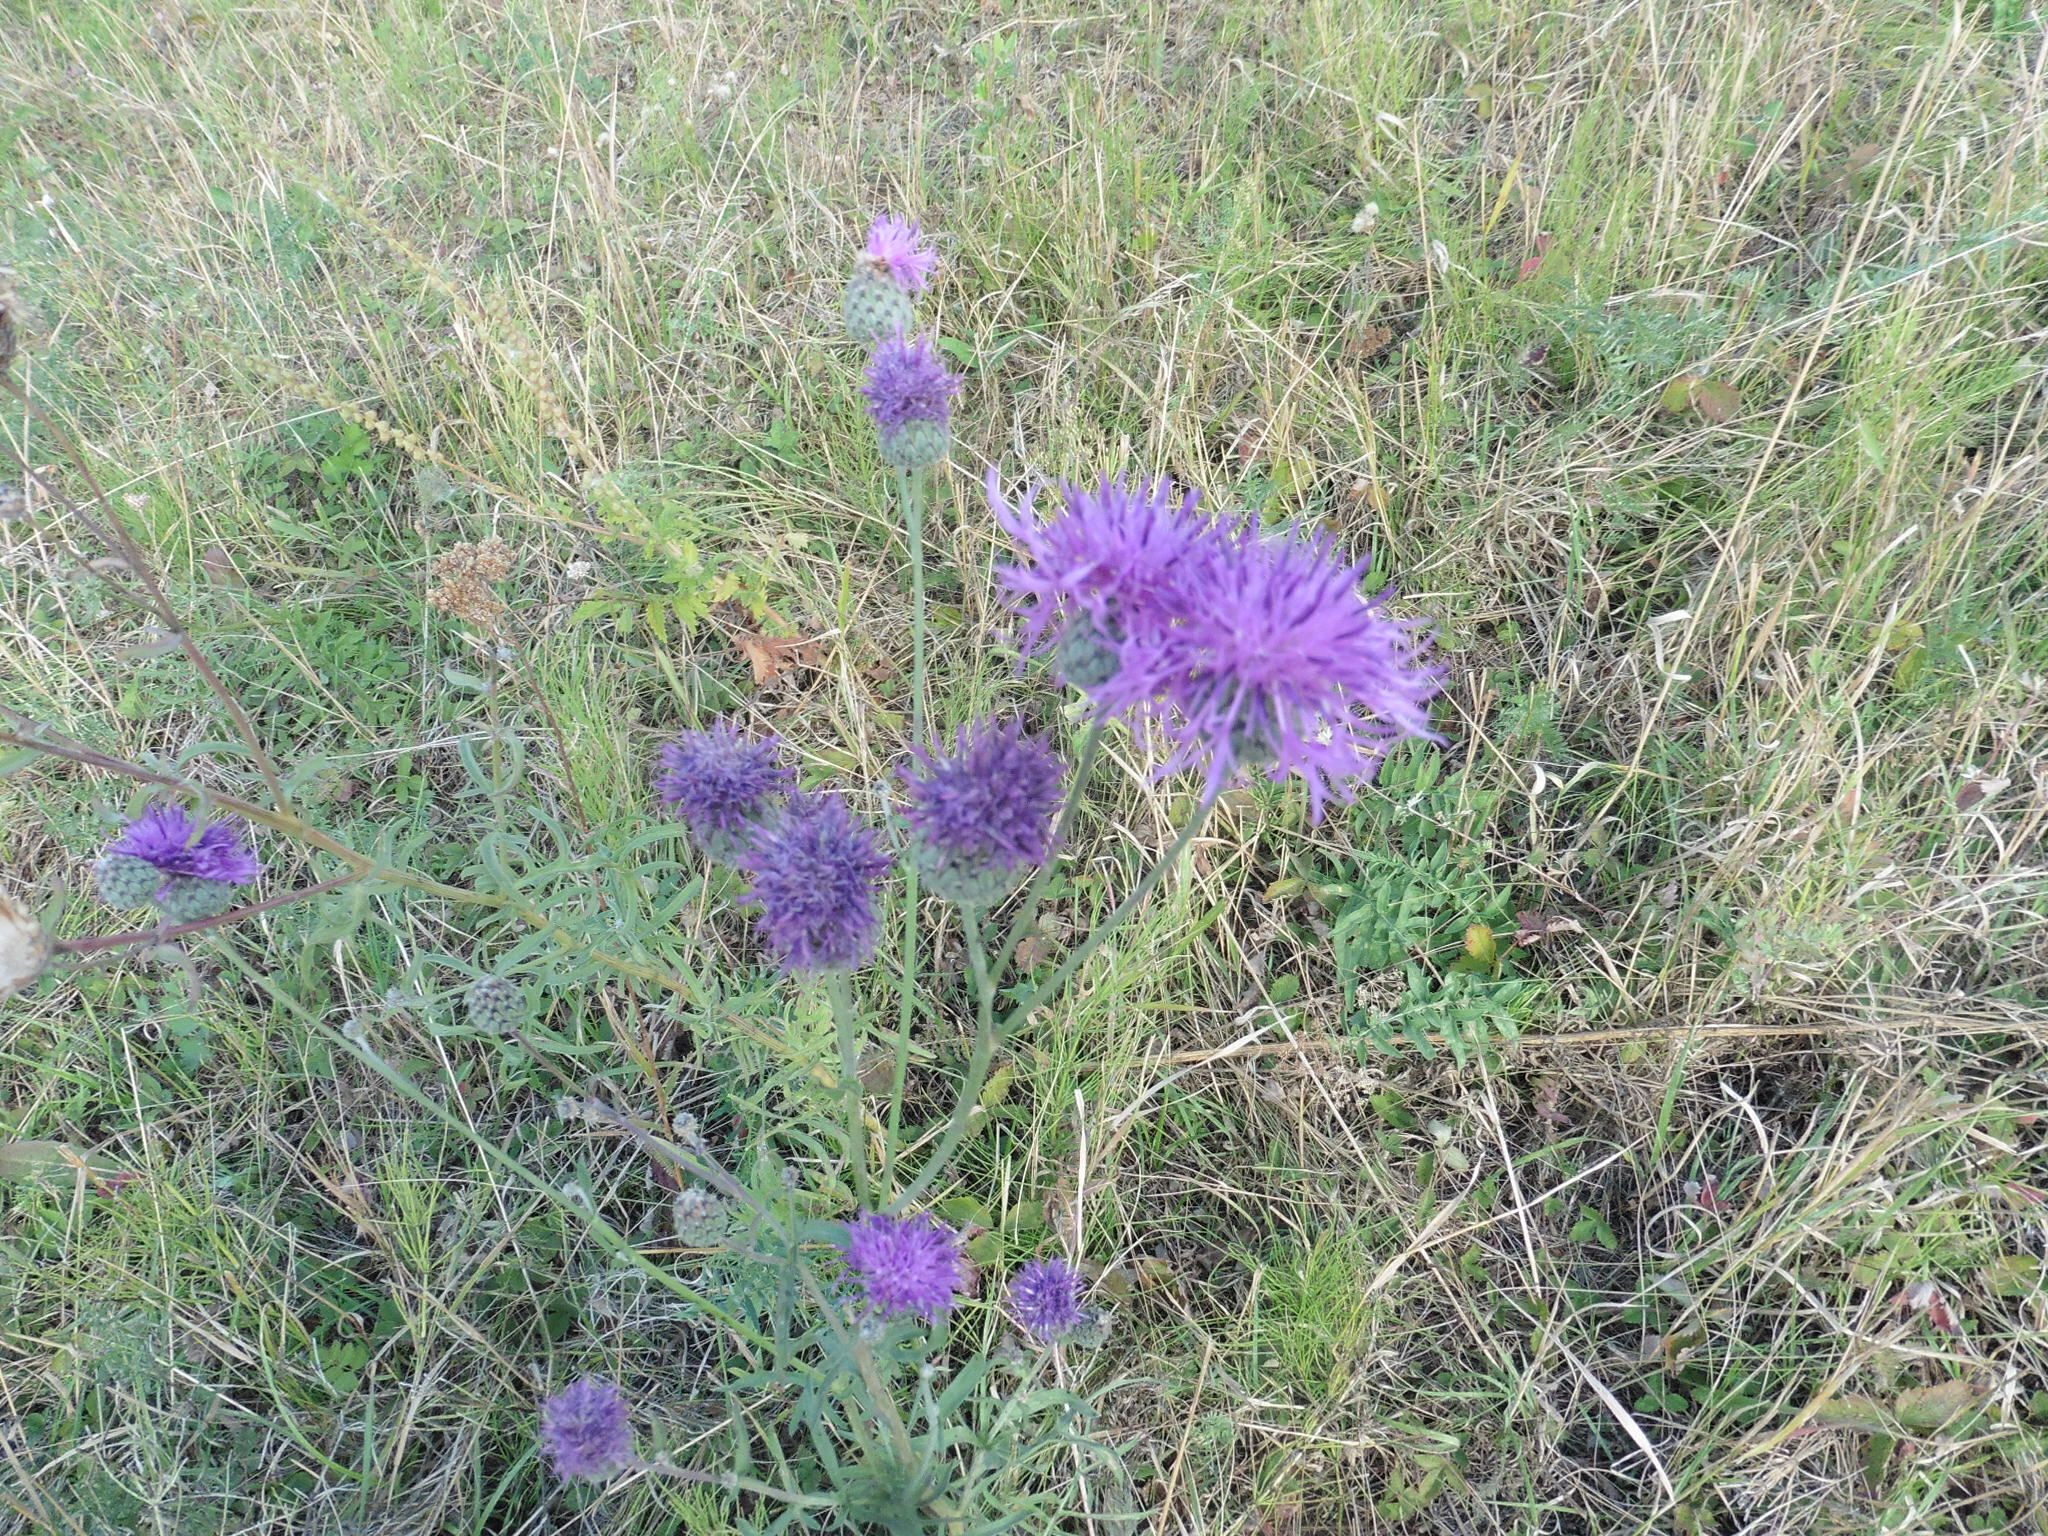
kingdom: Plantae
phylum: Tracheophyta
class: Magnoliopsida
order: Asterales
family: Asteraceae
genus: Centaurea
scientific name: Centaurea scabiosa
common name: Greater knapweed
